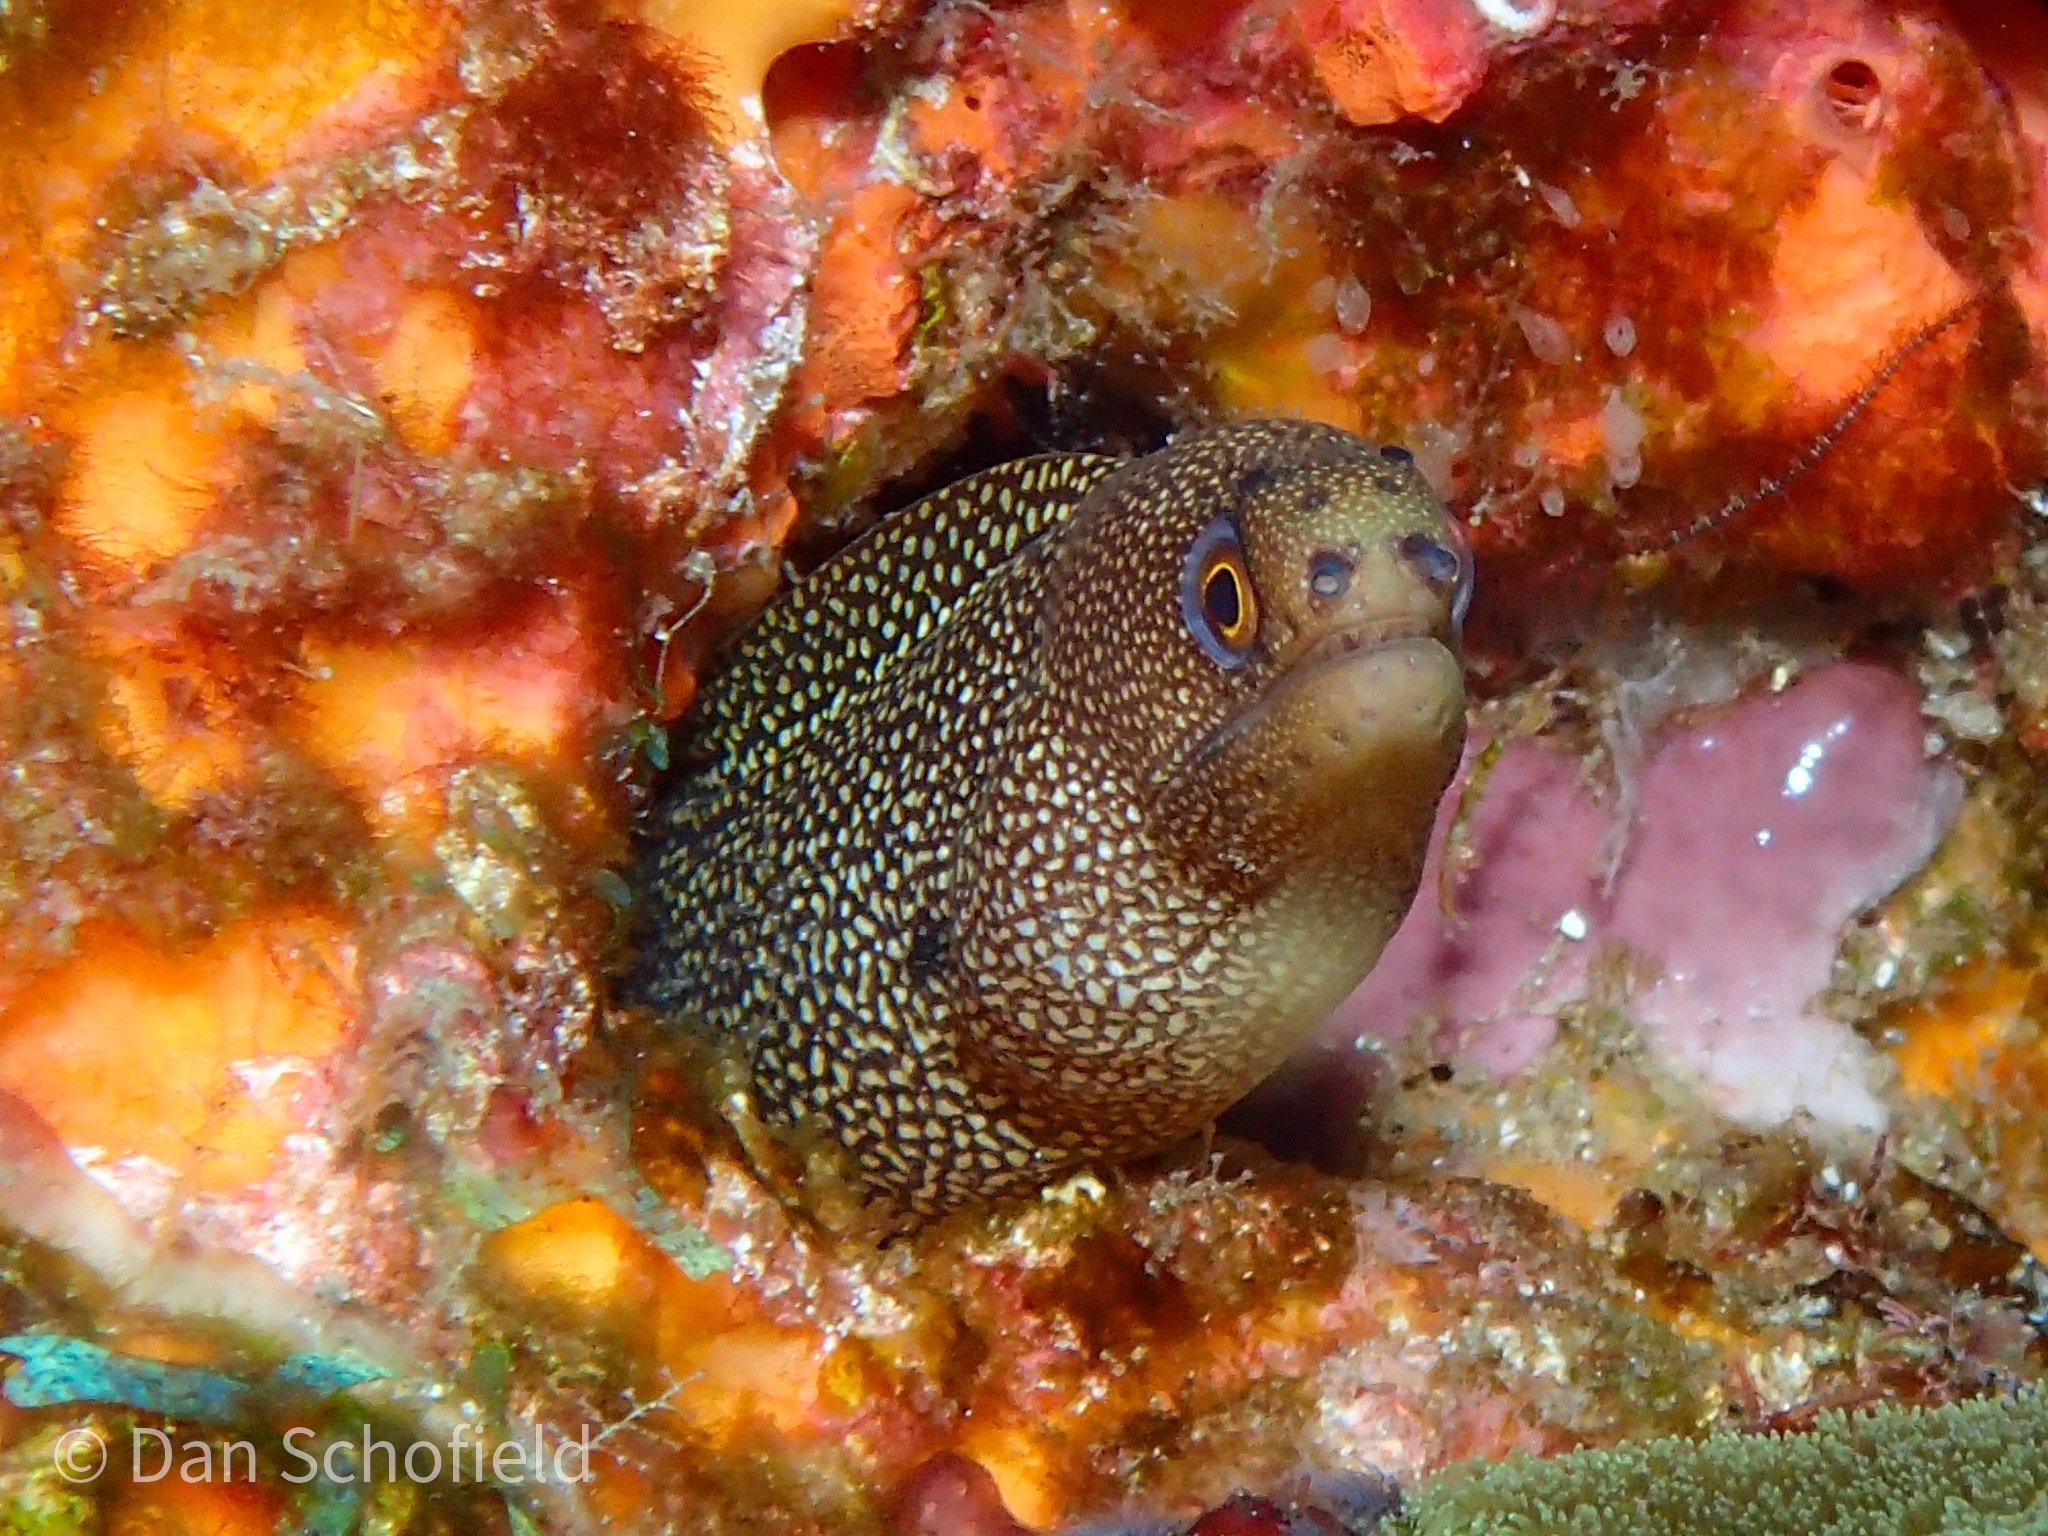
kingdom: Animalia
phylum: Chordata
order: Anguilliformes
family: Muraenidae
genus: Gymnothorax
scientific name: Gymnothorax miliaris
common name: Goldentail moray
